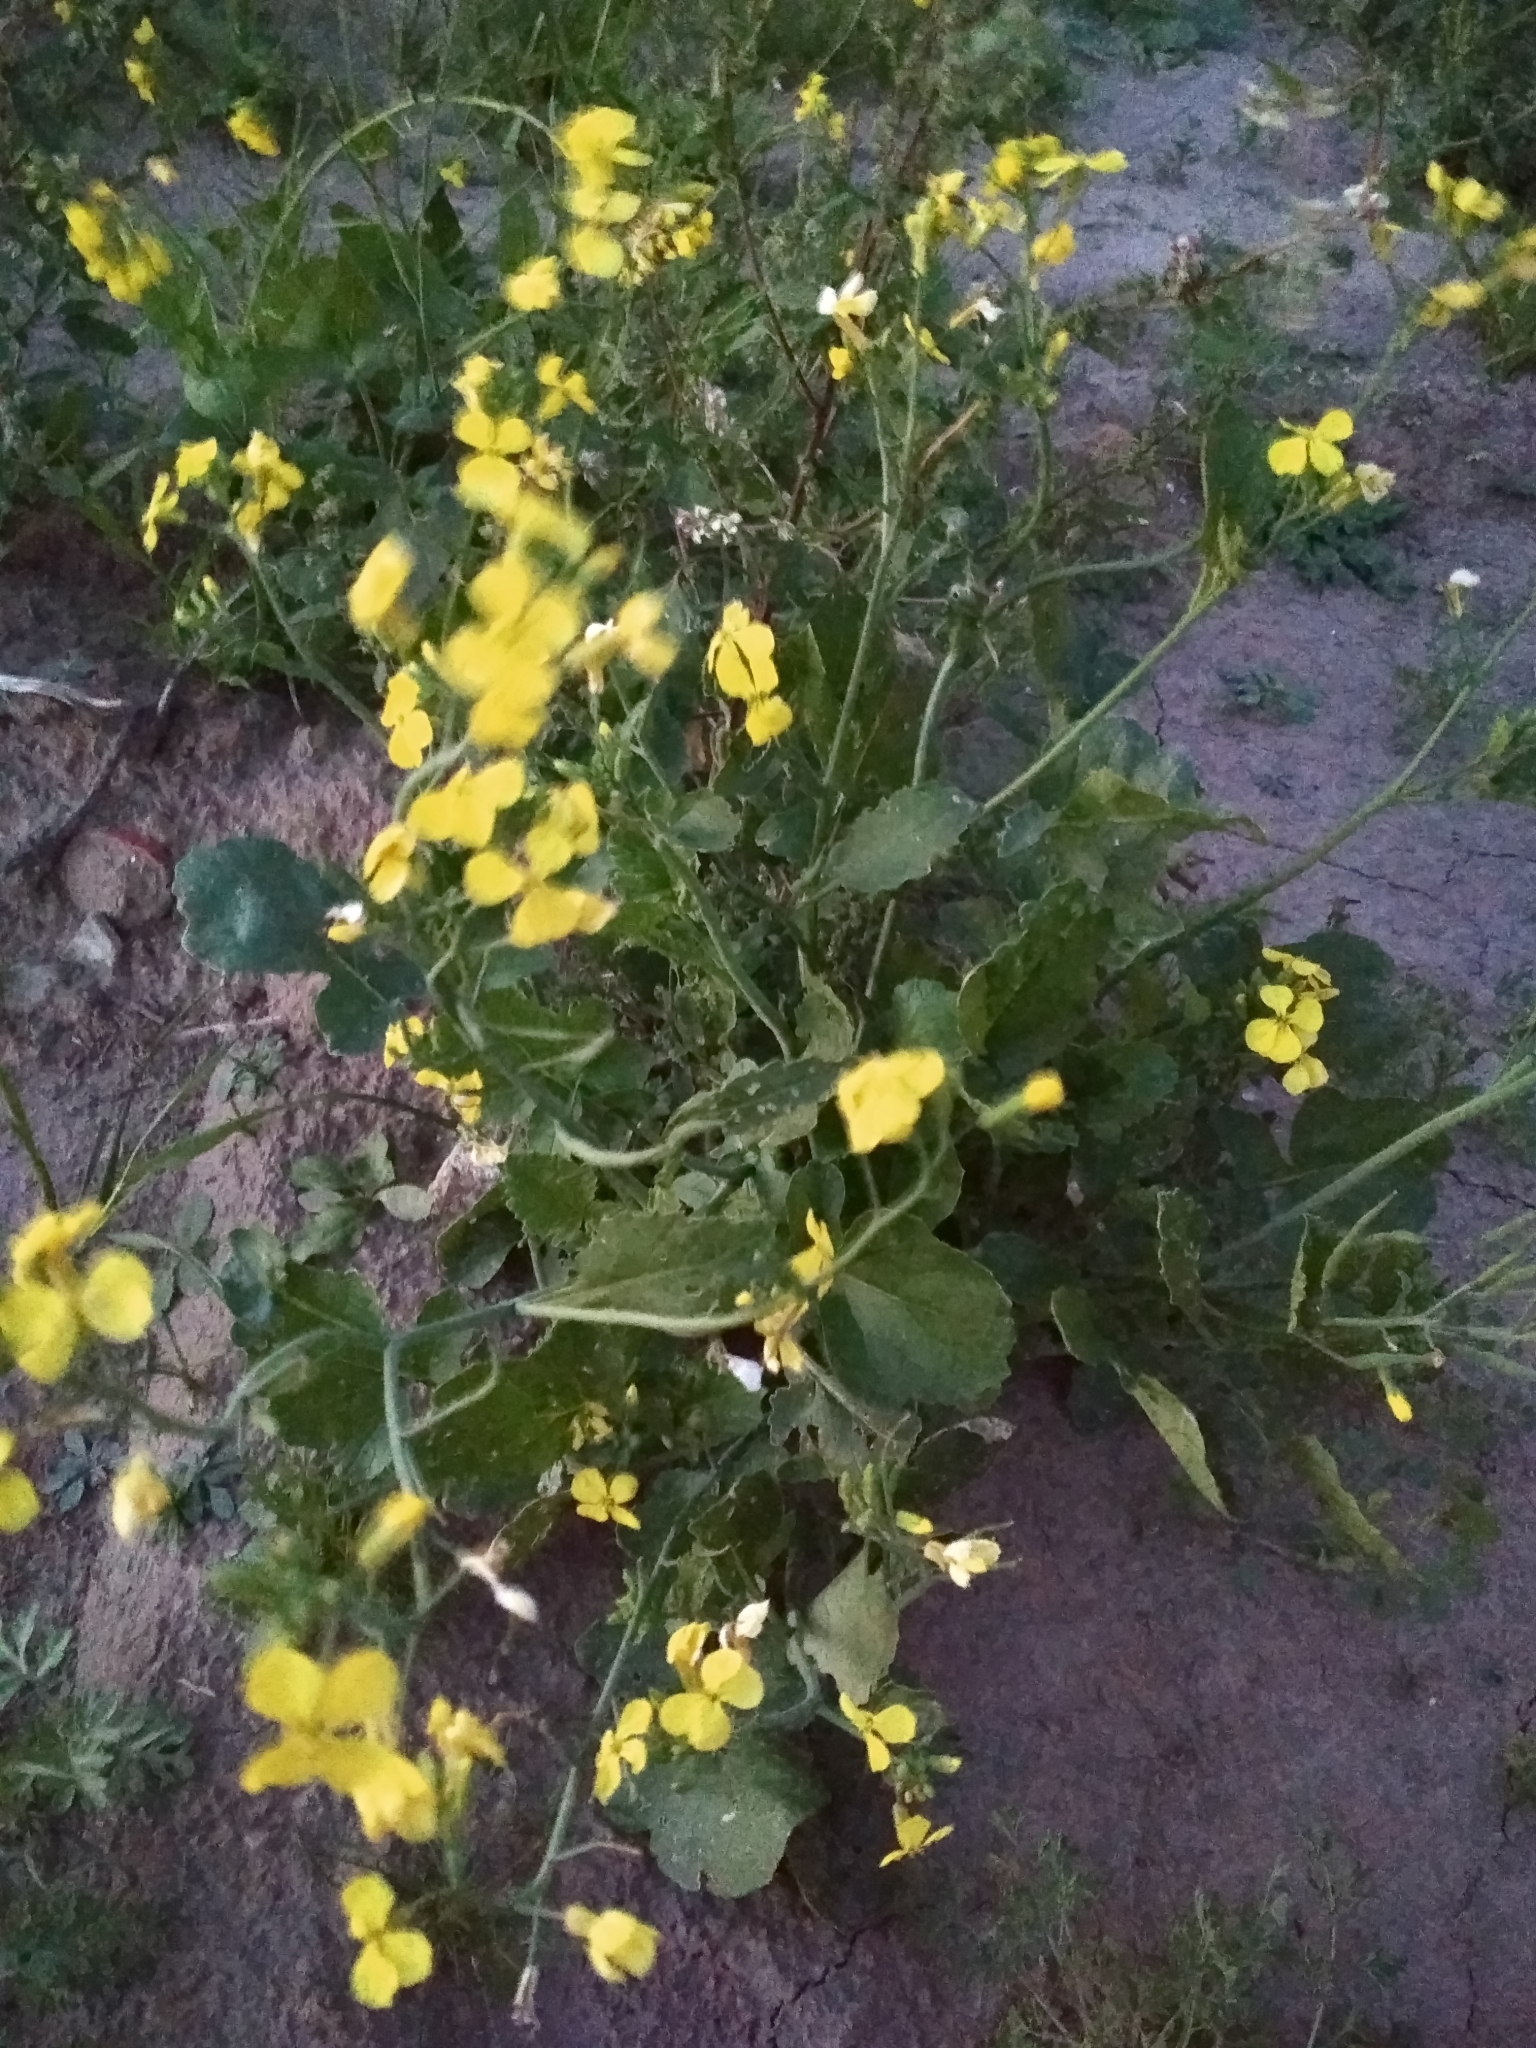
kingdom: Plantae
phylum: Tracheophyta
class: Magnoliopsida
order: Brassicales
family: Brassicaceae
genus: Raphanus
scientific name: Raphanus raphanistrum
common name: Wild radish
